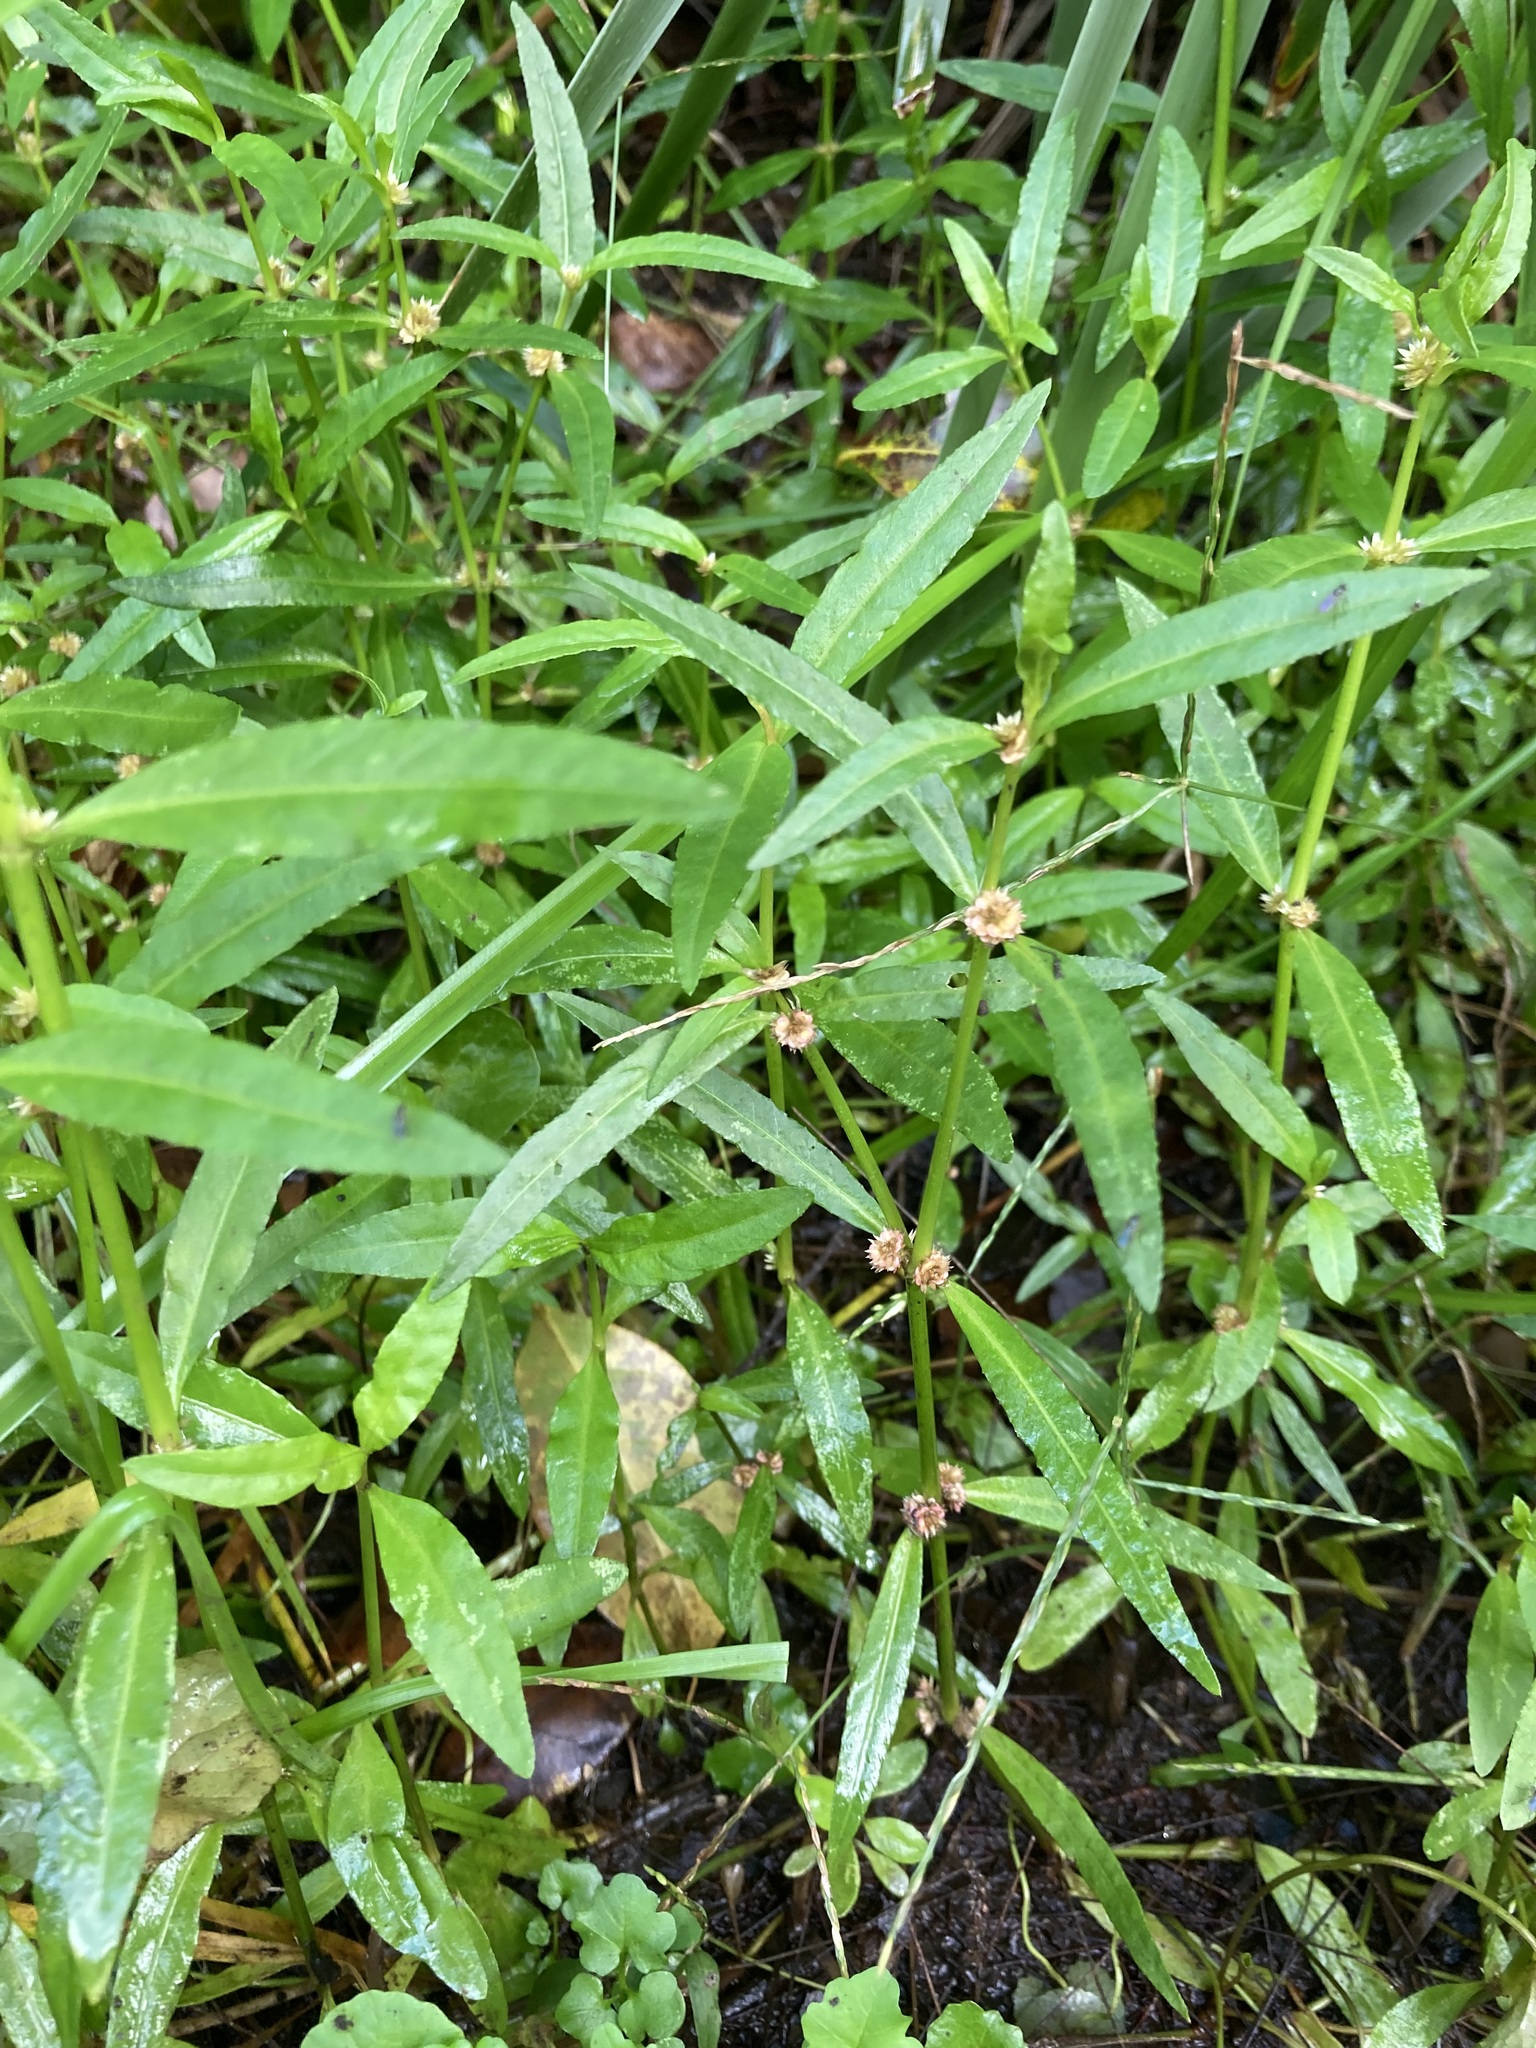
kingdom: Plantae
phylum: Tracheophyta
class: Magnoliopsida
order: Caryophyllales
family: Amaranthaceae
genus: Alternanthera
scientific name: Alternanthera denticulata
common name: Lesser joyweed
